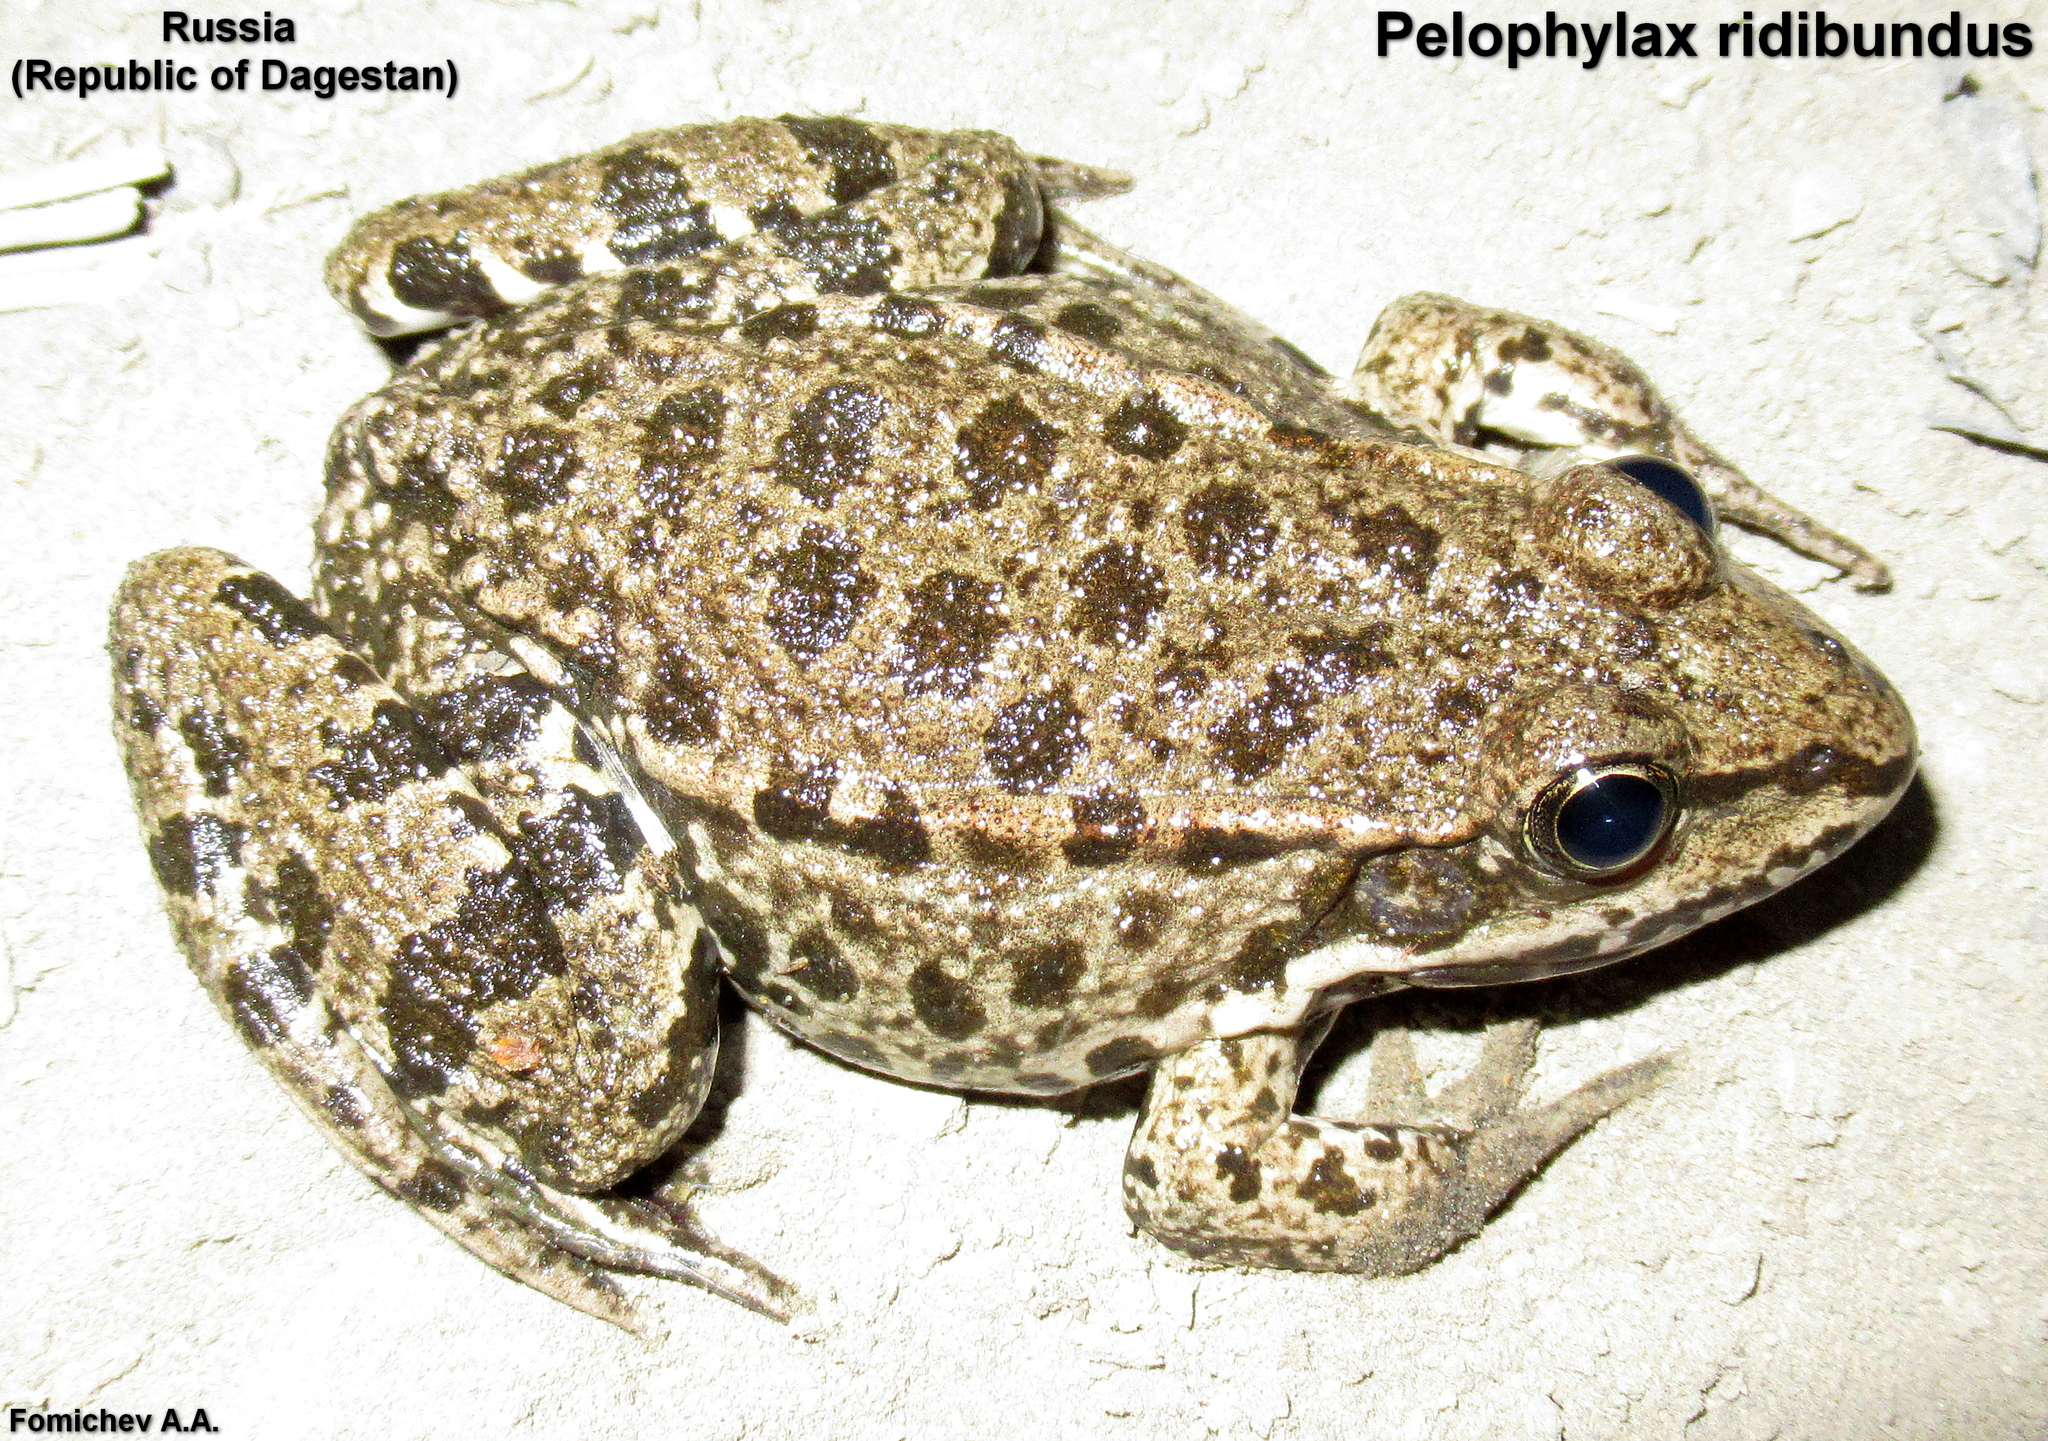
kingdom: Animalia
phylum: Chordata
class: Amphibia
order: Anura
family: Ranidae
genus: Pelophylax
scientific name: Pelophylax ridibundus
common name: Marsh frog
